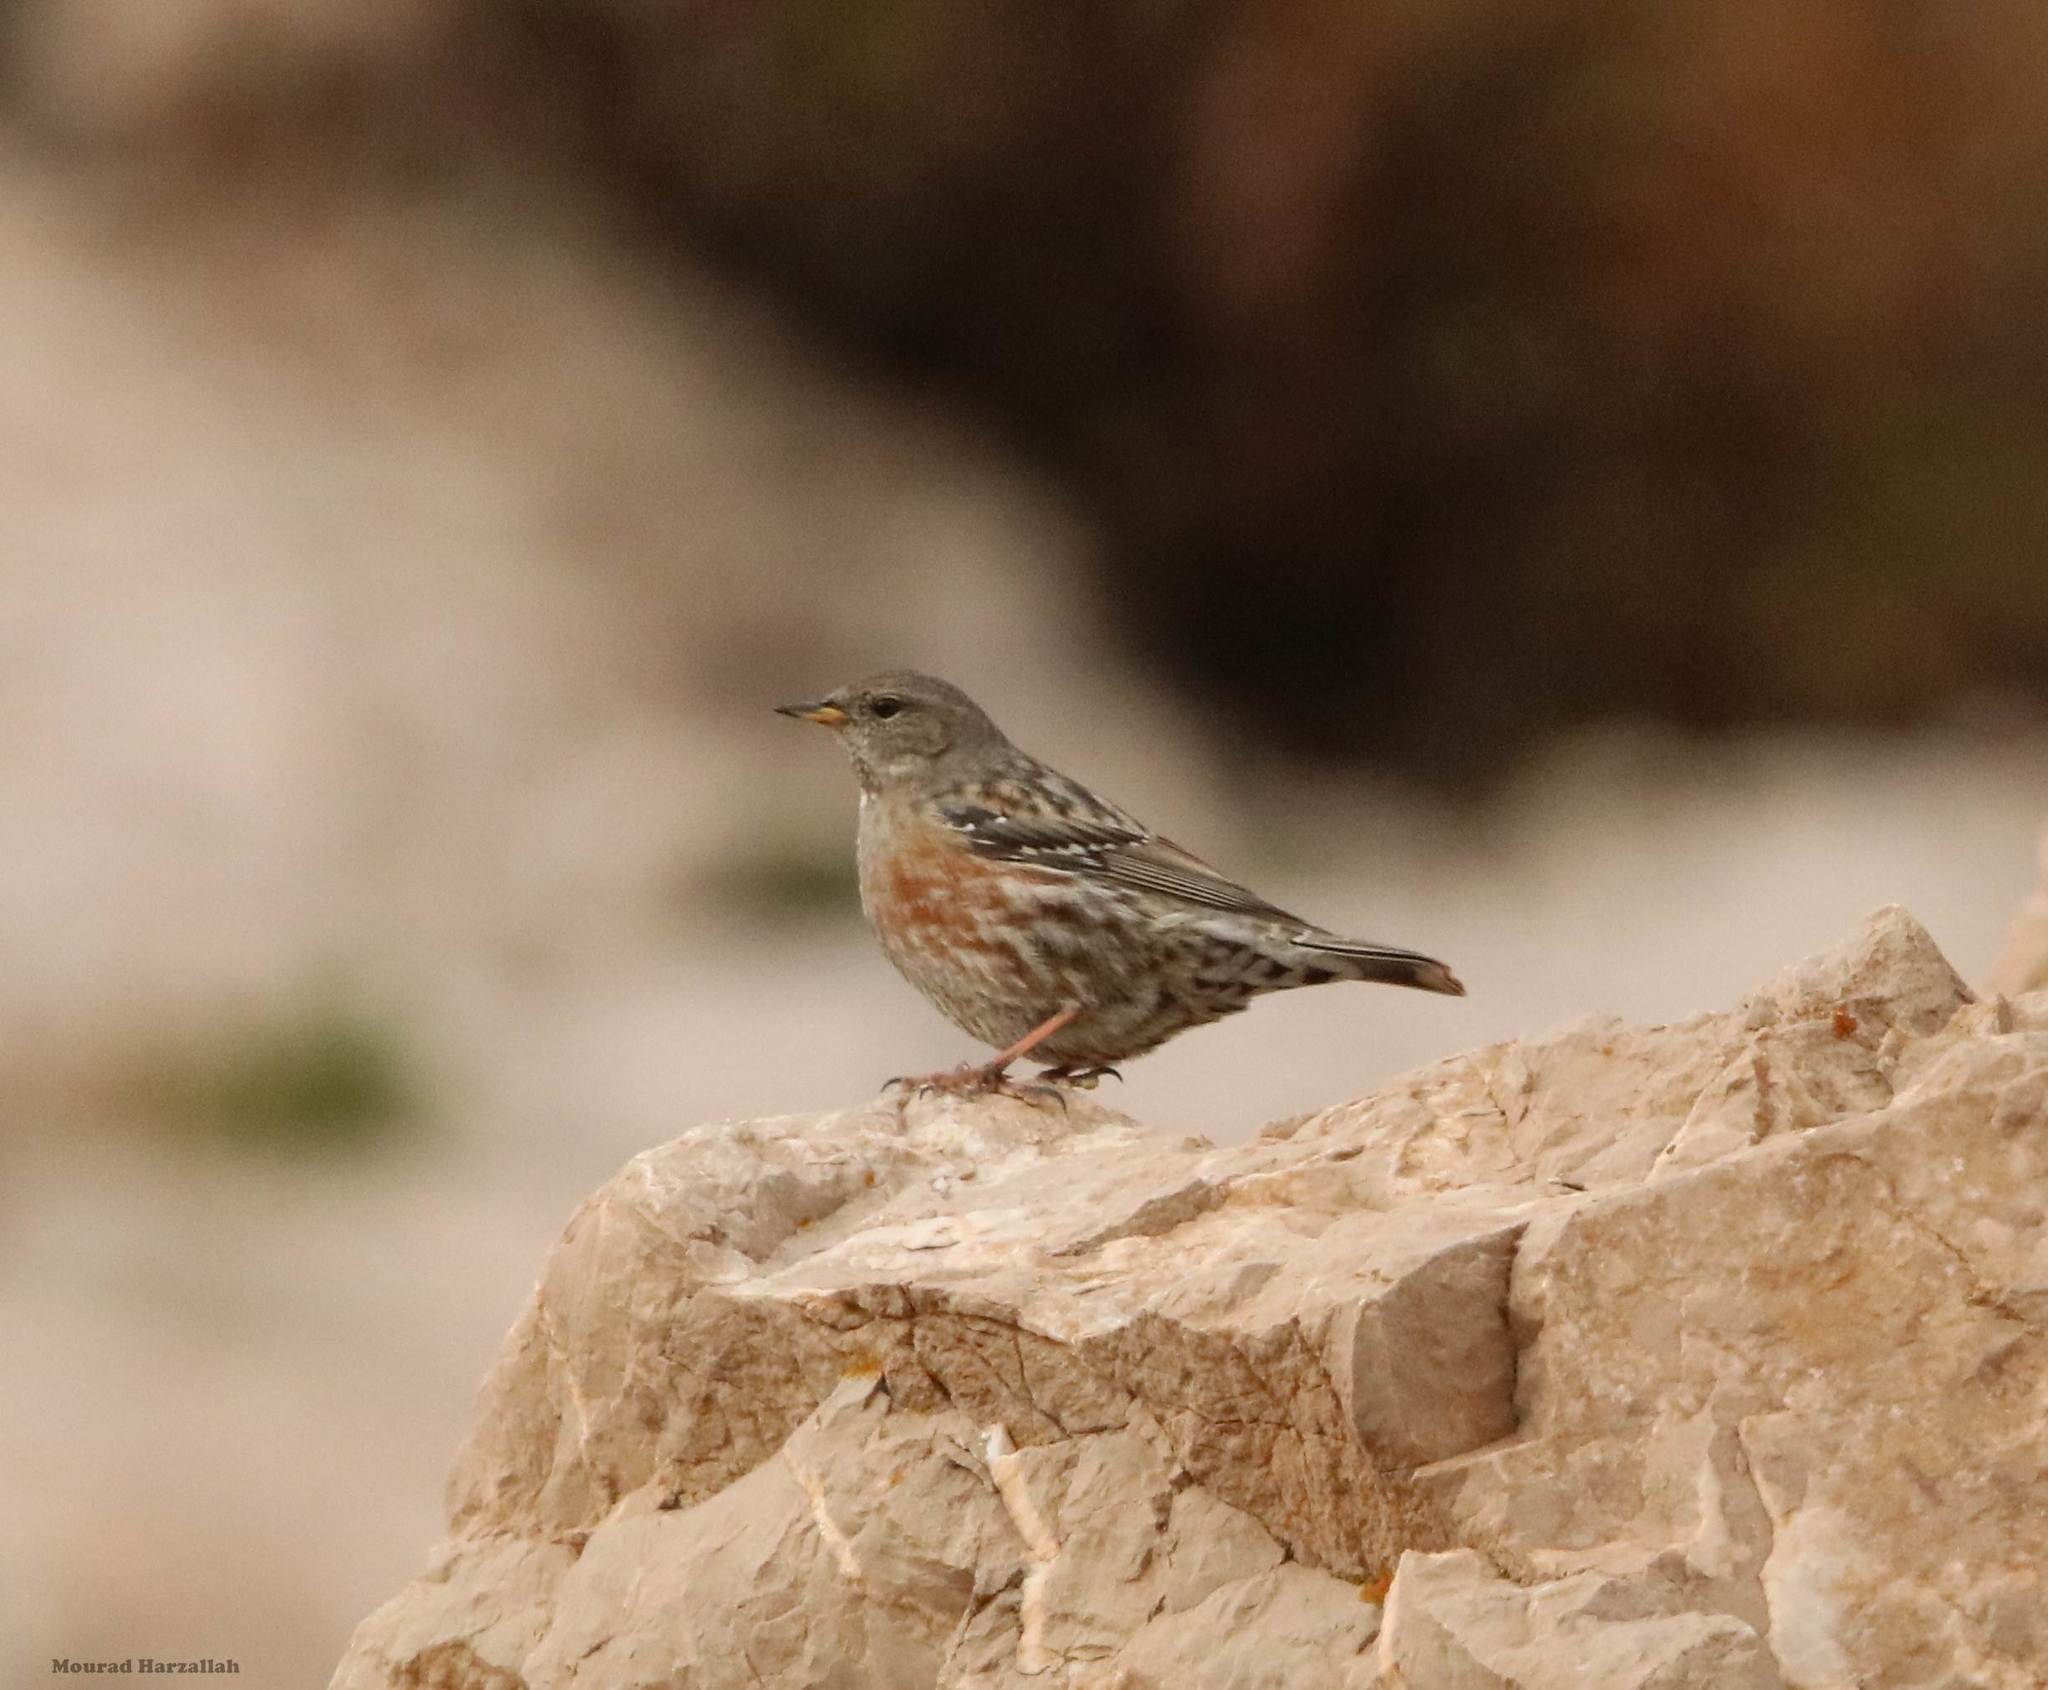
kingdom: Animalia
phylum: Chordata
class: Aves
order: Passeriformes
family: Prunellidae
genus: Prunella
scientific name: Prunella collaris
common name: Alpine accentor
